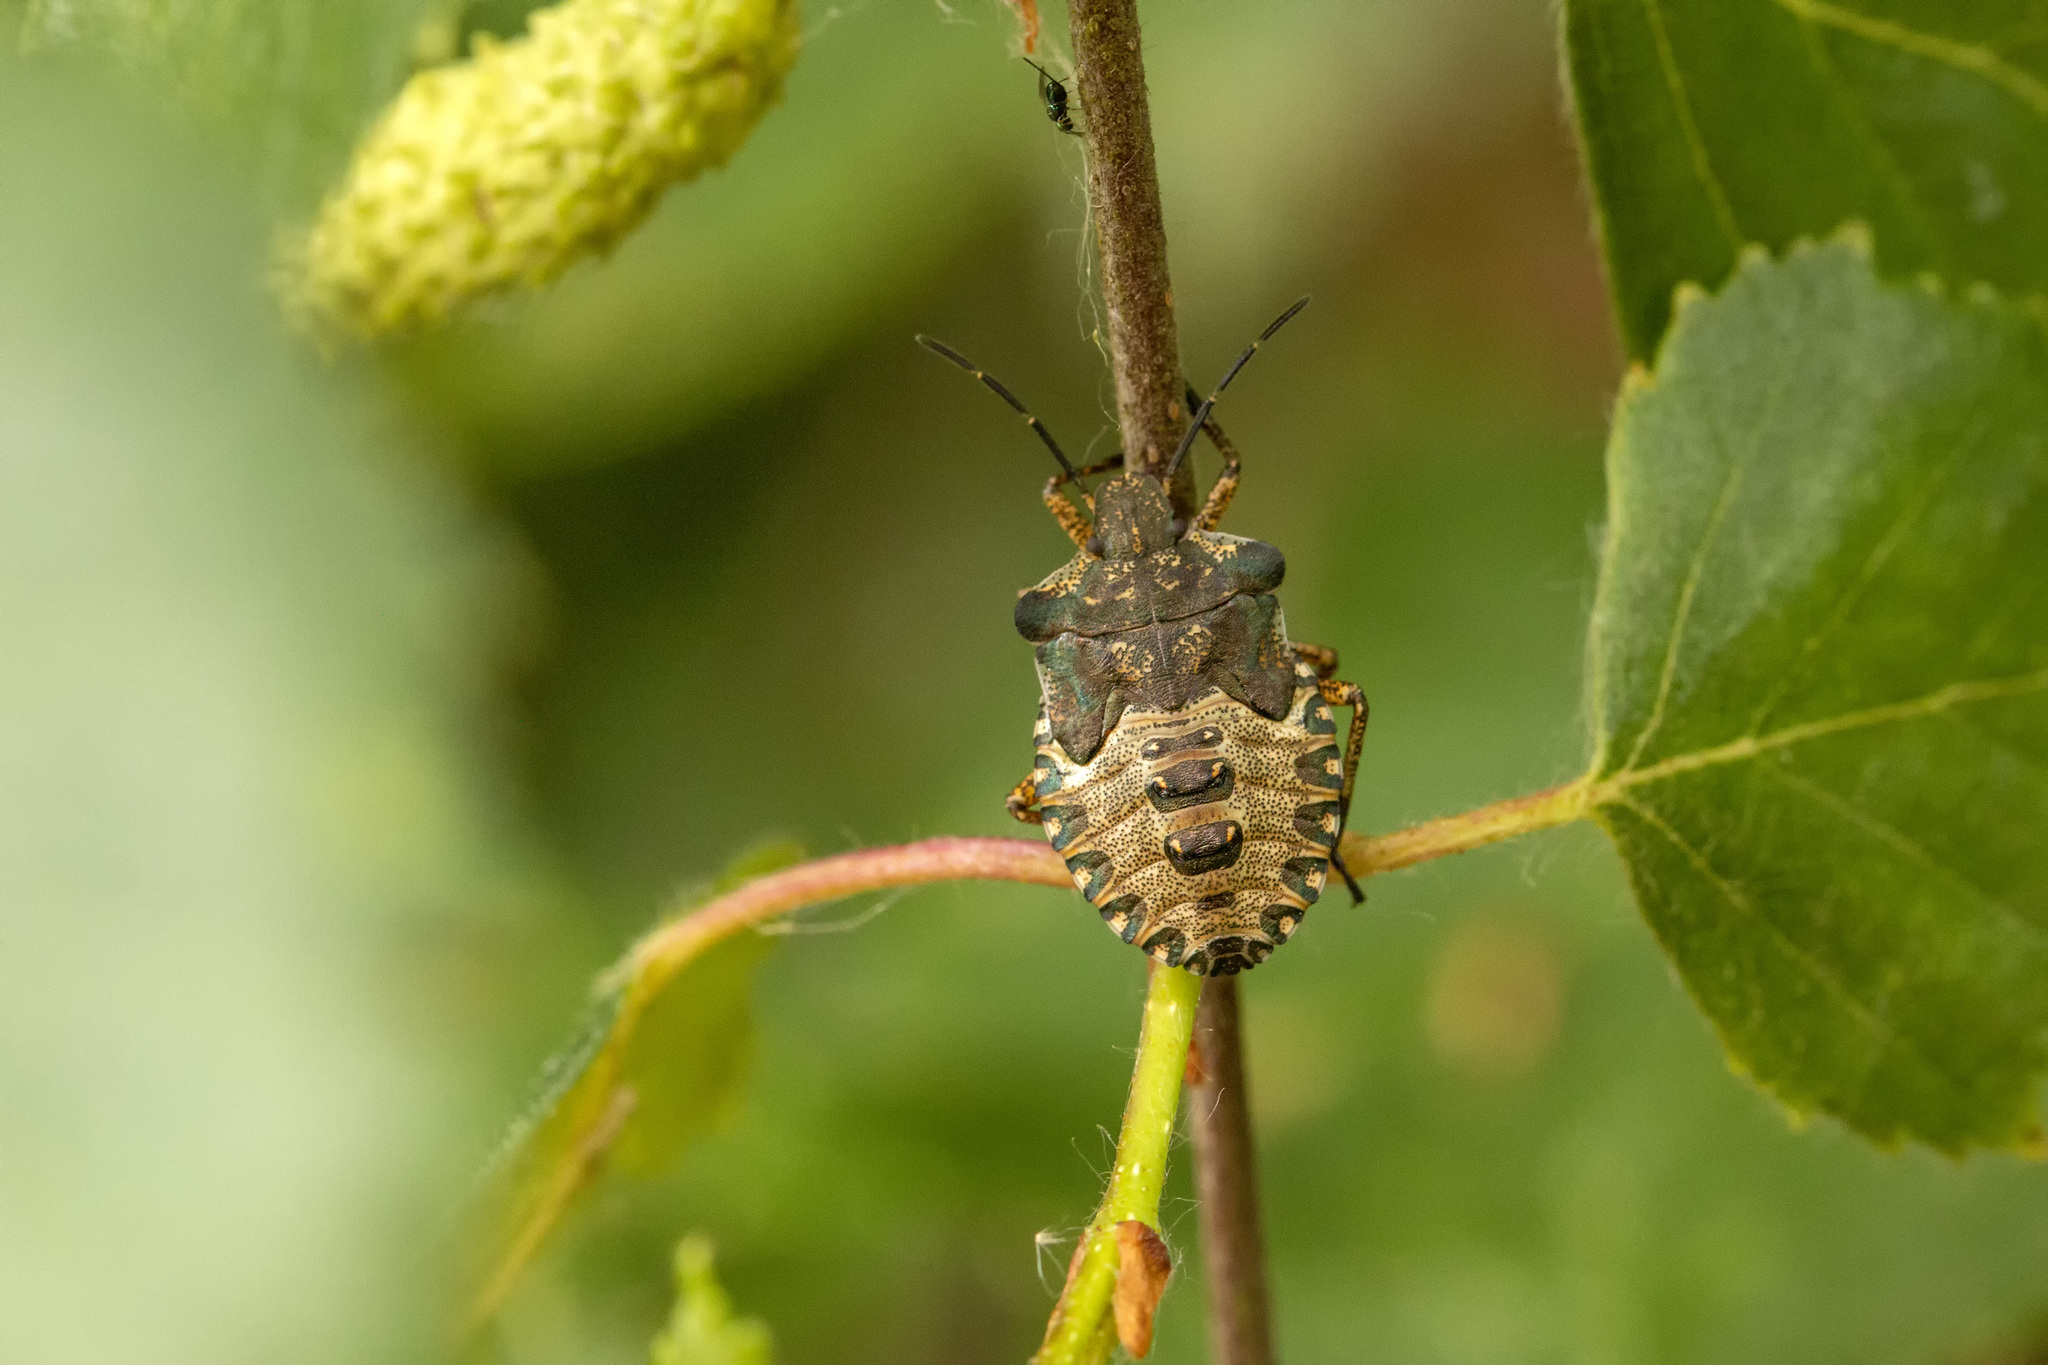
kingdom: Animalia
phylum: Arthropoda
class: Insecta
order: Hemiptera
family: Pentatomidae
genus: Pentatoma
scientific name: Pentatoma rufipes
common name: Forest bug
